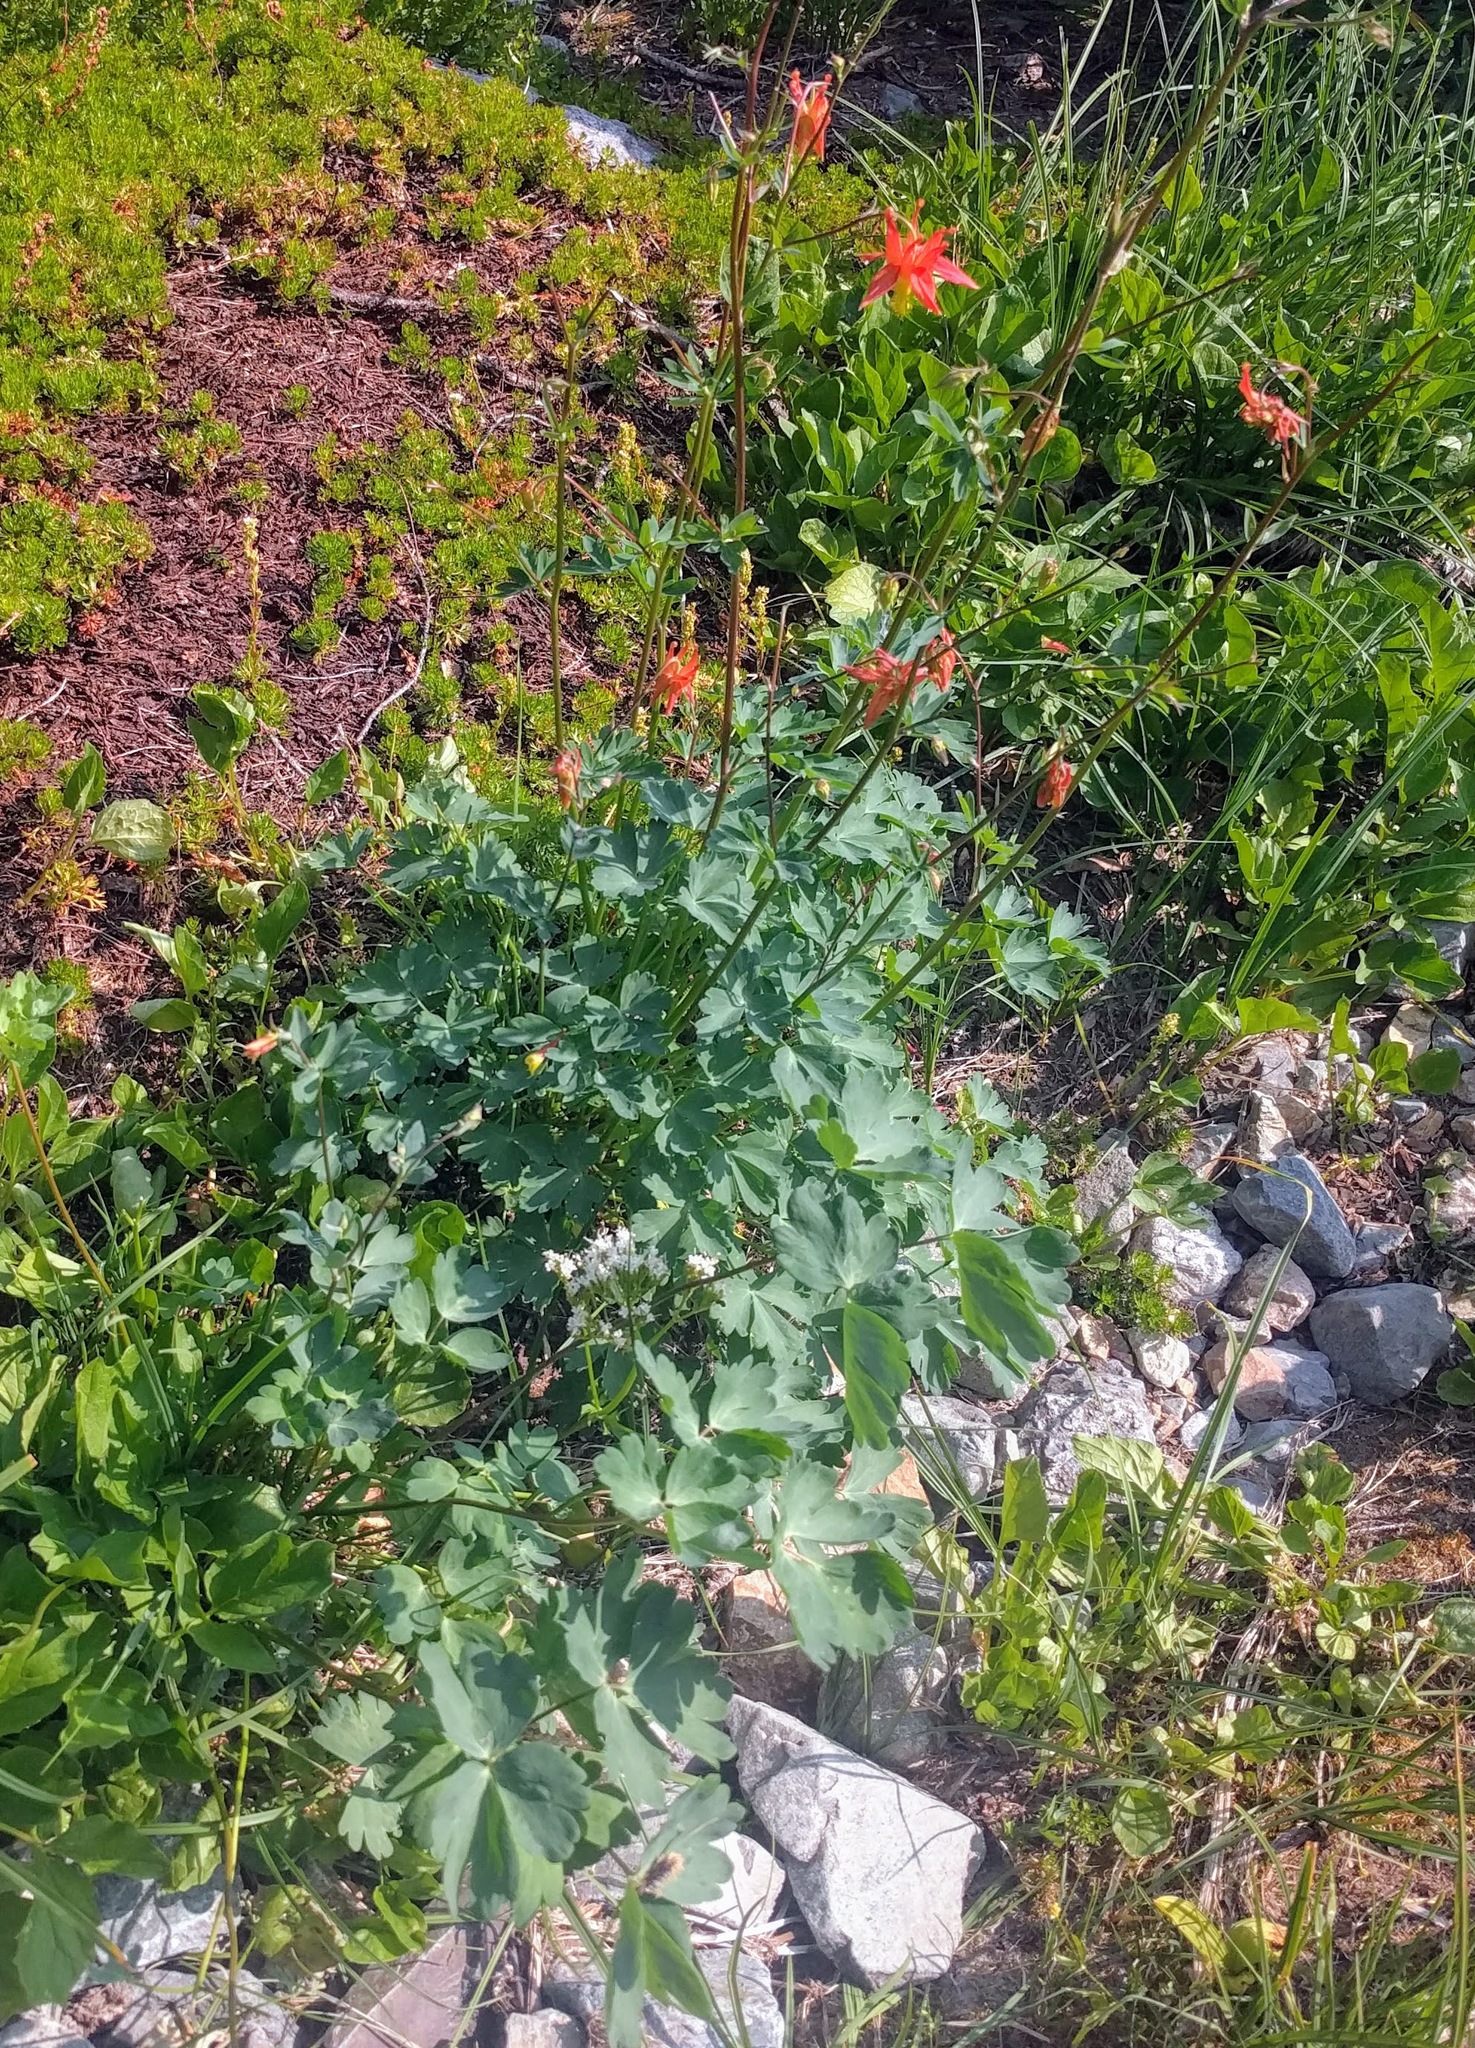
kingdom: Plantae
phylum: Tracheophyta
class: Magnoliopsida
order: Ranunculales
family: Ranunculaceae
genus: Aquilegia
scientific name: Aquilegia formosa
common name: Sitka columbine
